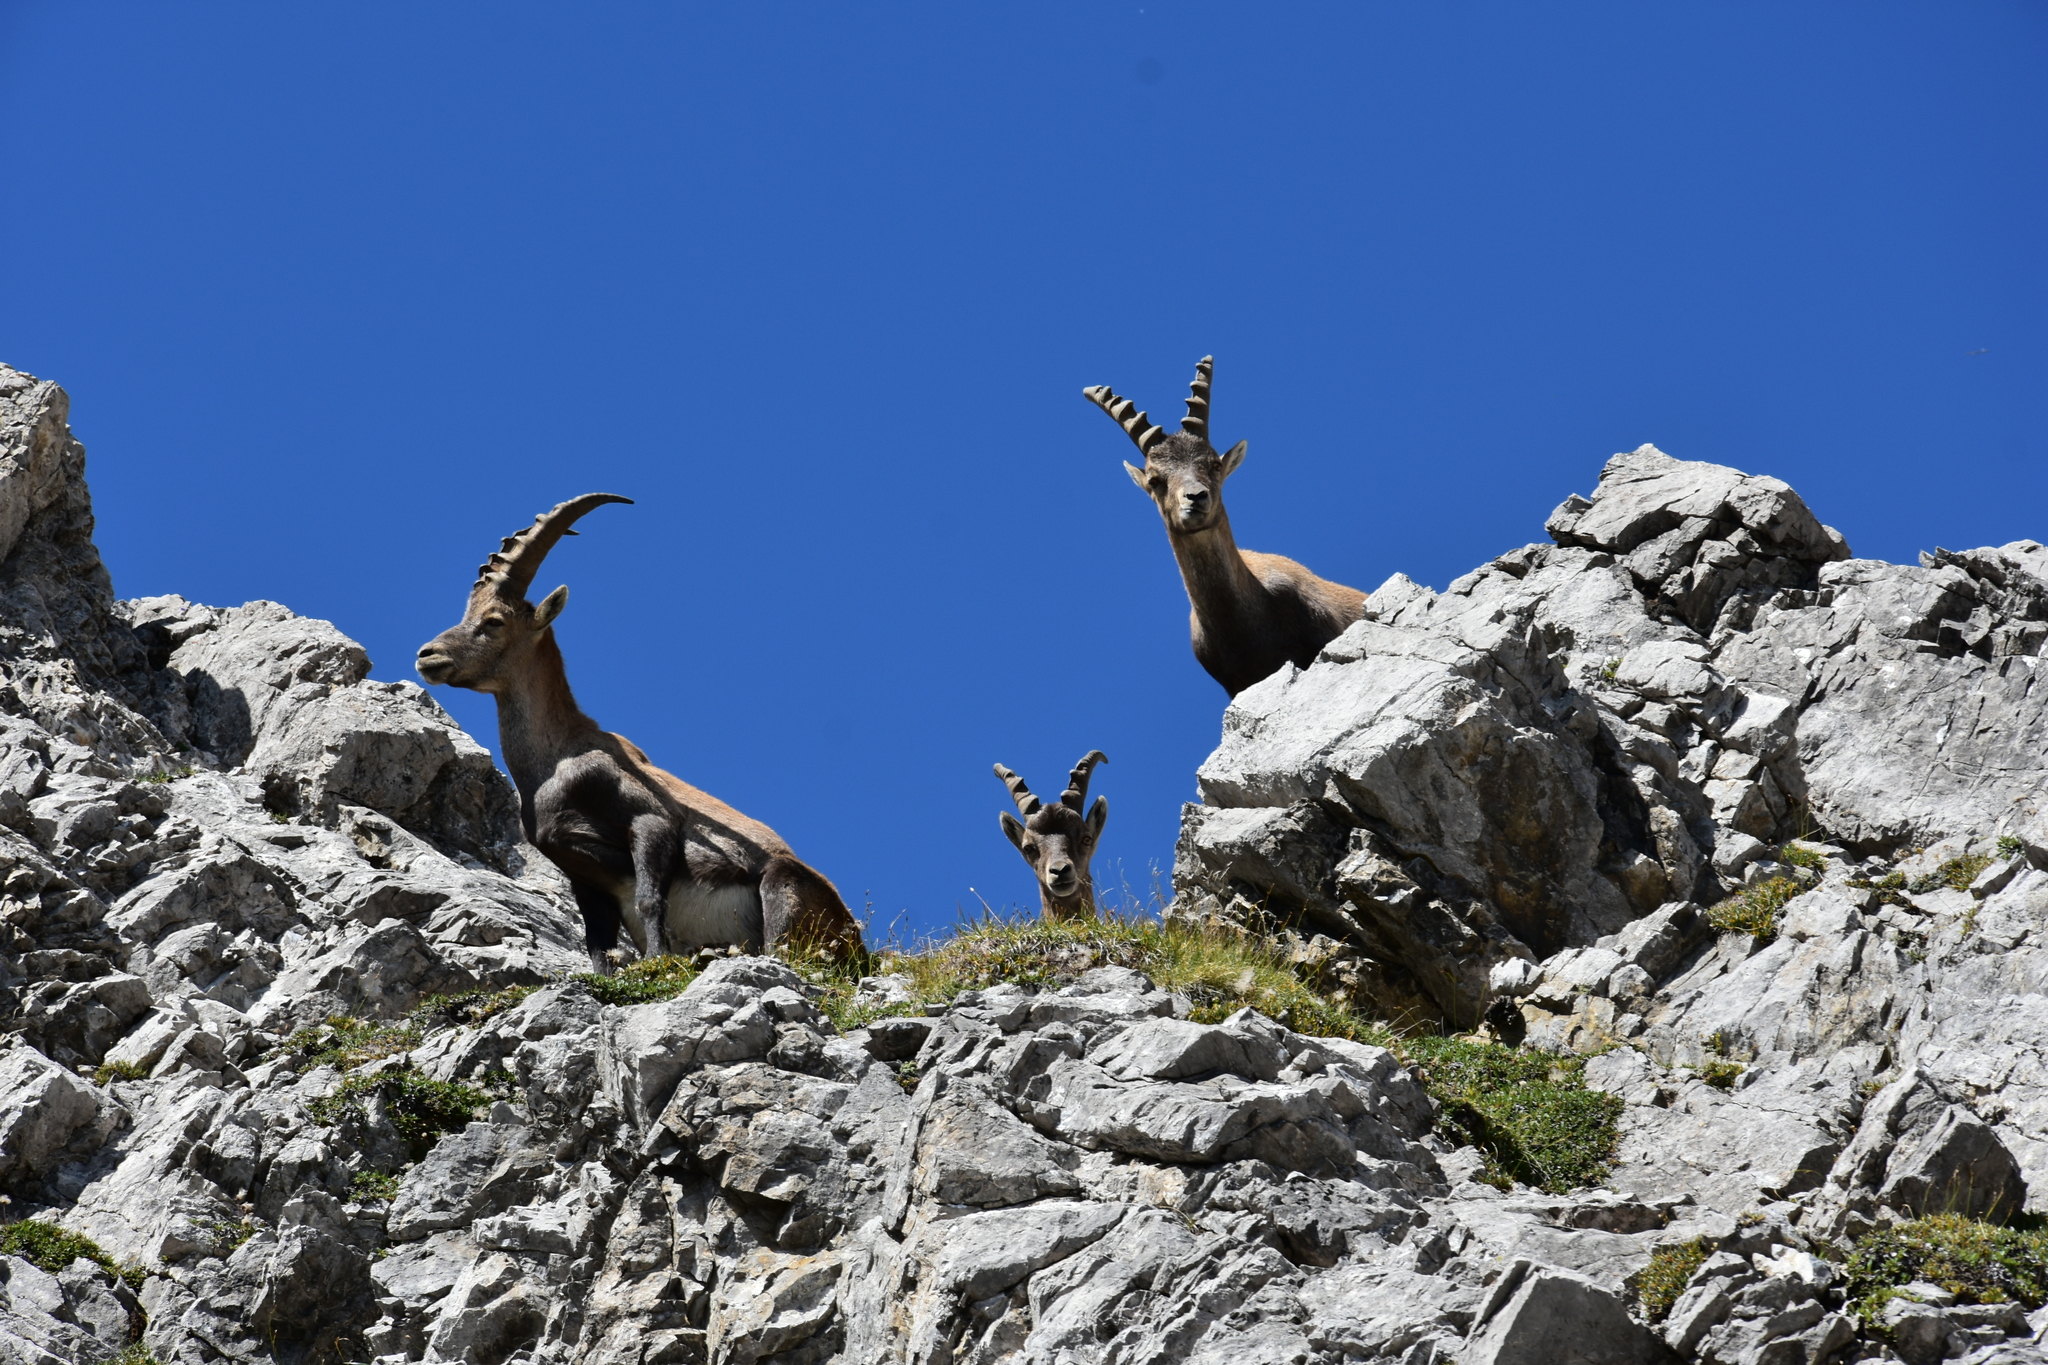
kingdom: Animalia
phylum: Chordata
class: Mammalia
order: Artiodactyla
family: Bovidae
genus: Capra
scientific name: Capra ibex
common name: Alpine ibex
